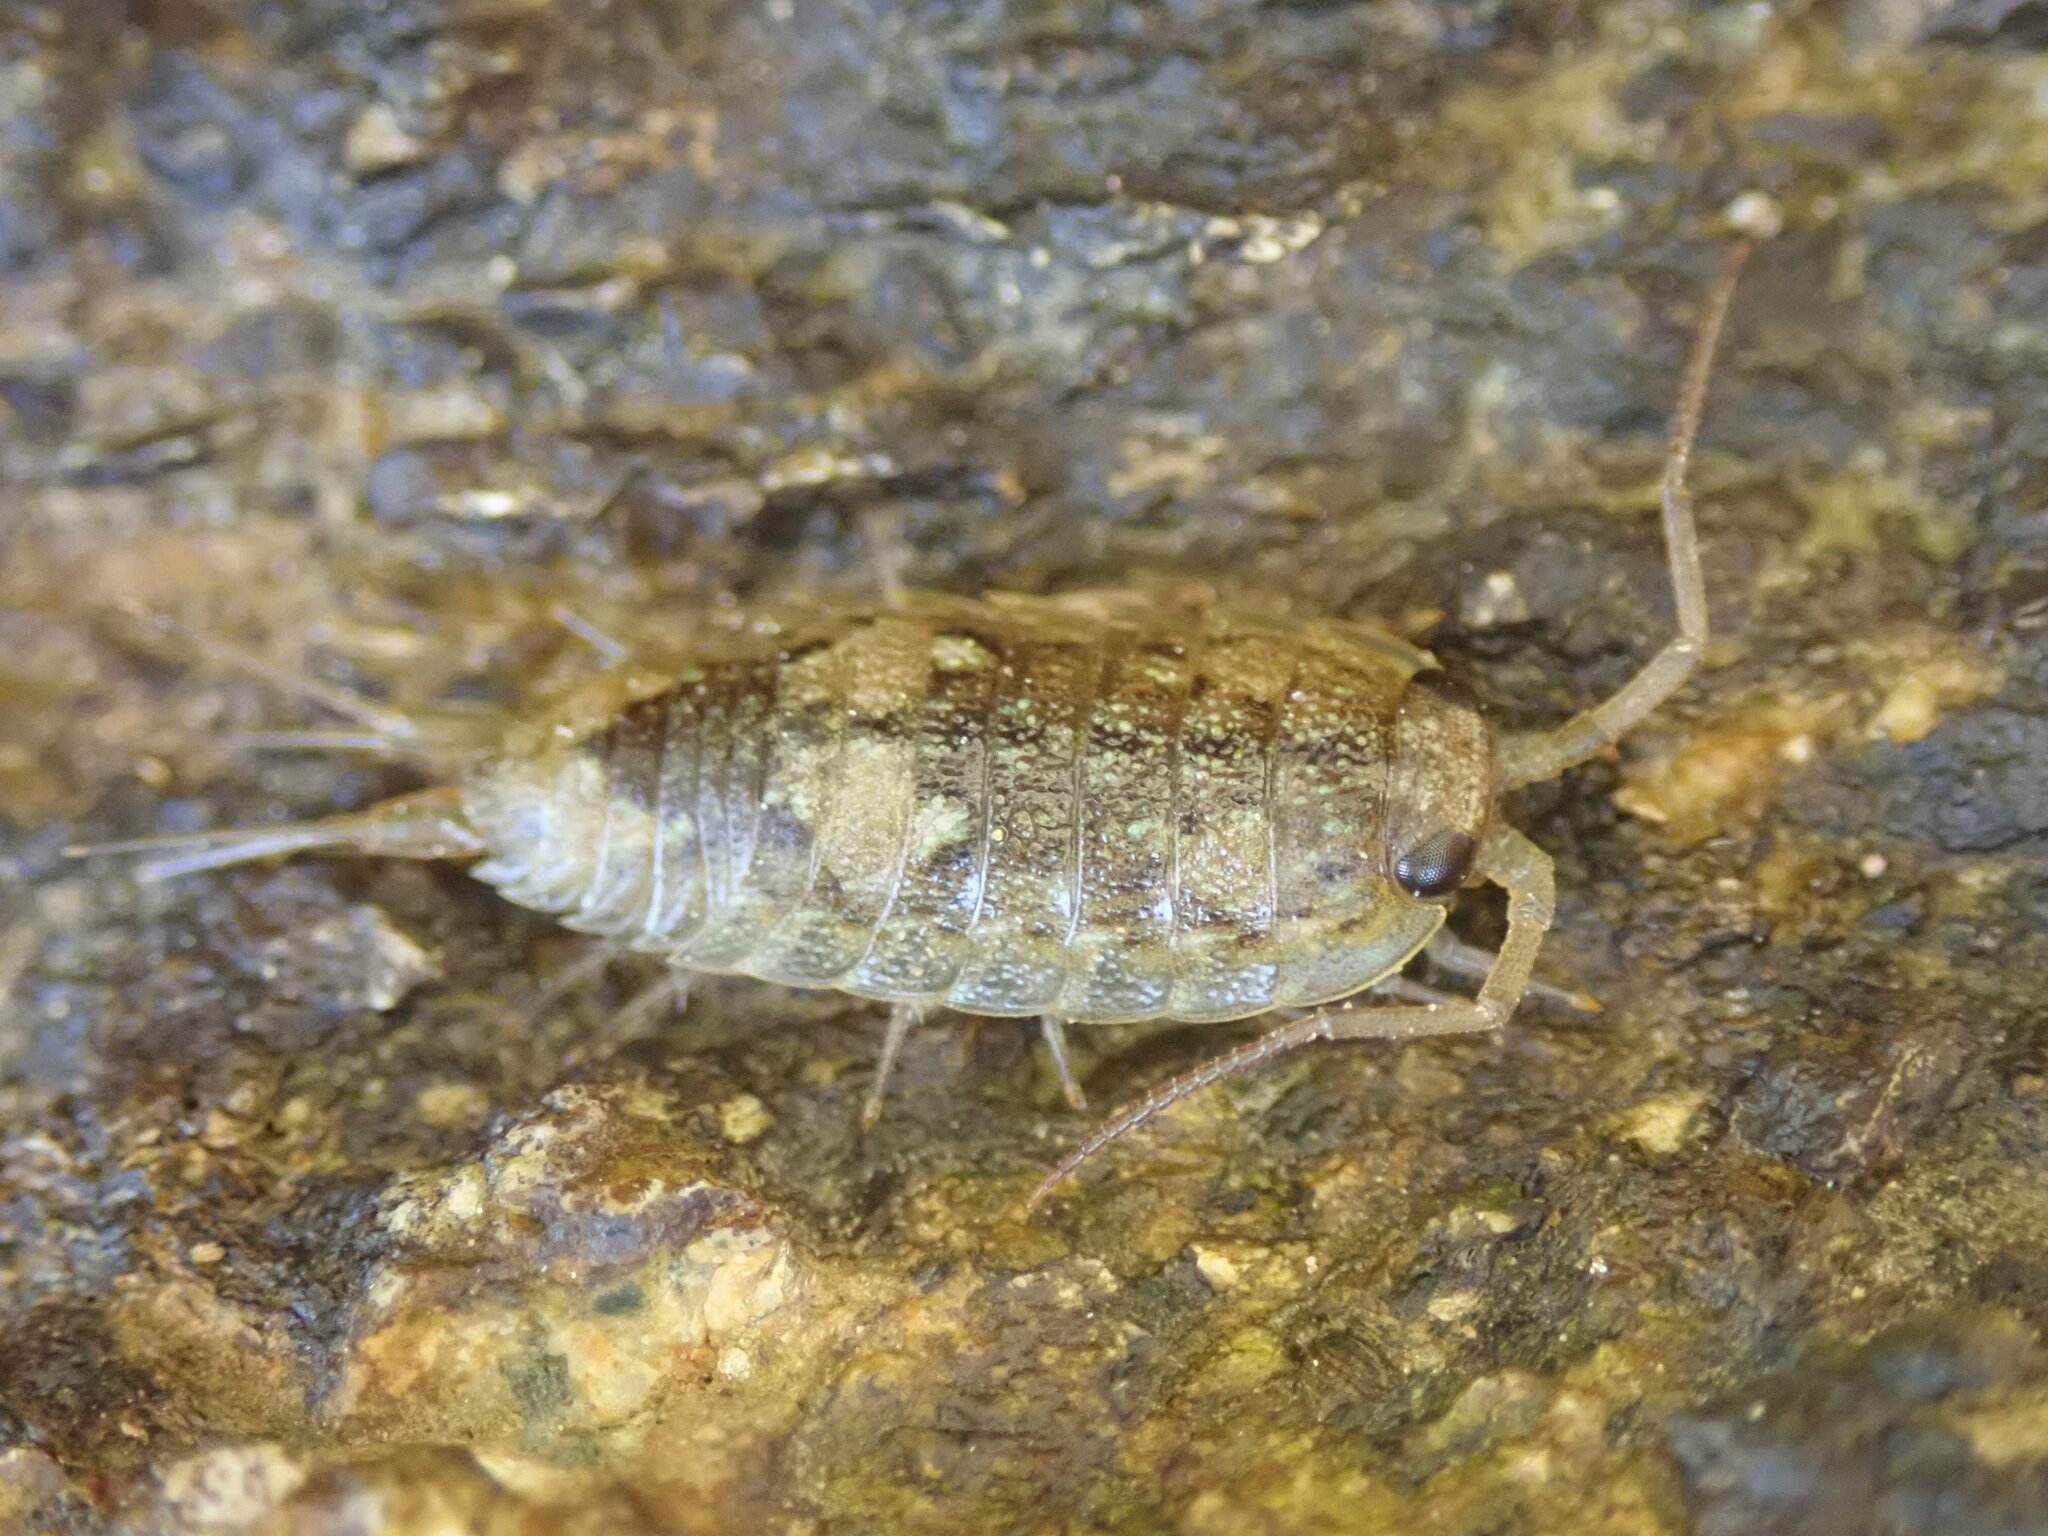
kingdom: Animalia
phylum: Arthropoda
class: Malacostraca
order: Isopoda
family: Ligiidae
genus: Ligia
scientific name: Ligia oceanica
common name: Sea slater
